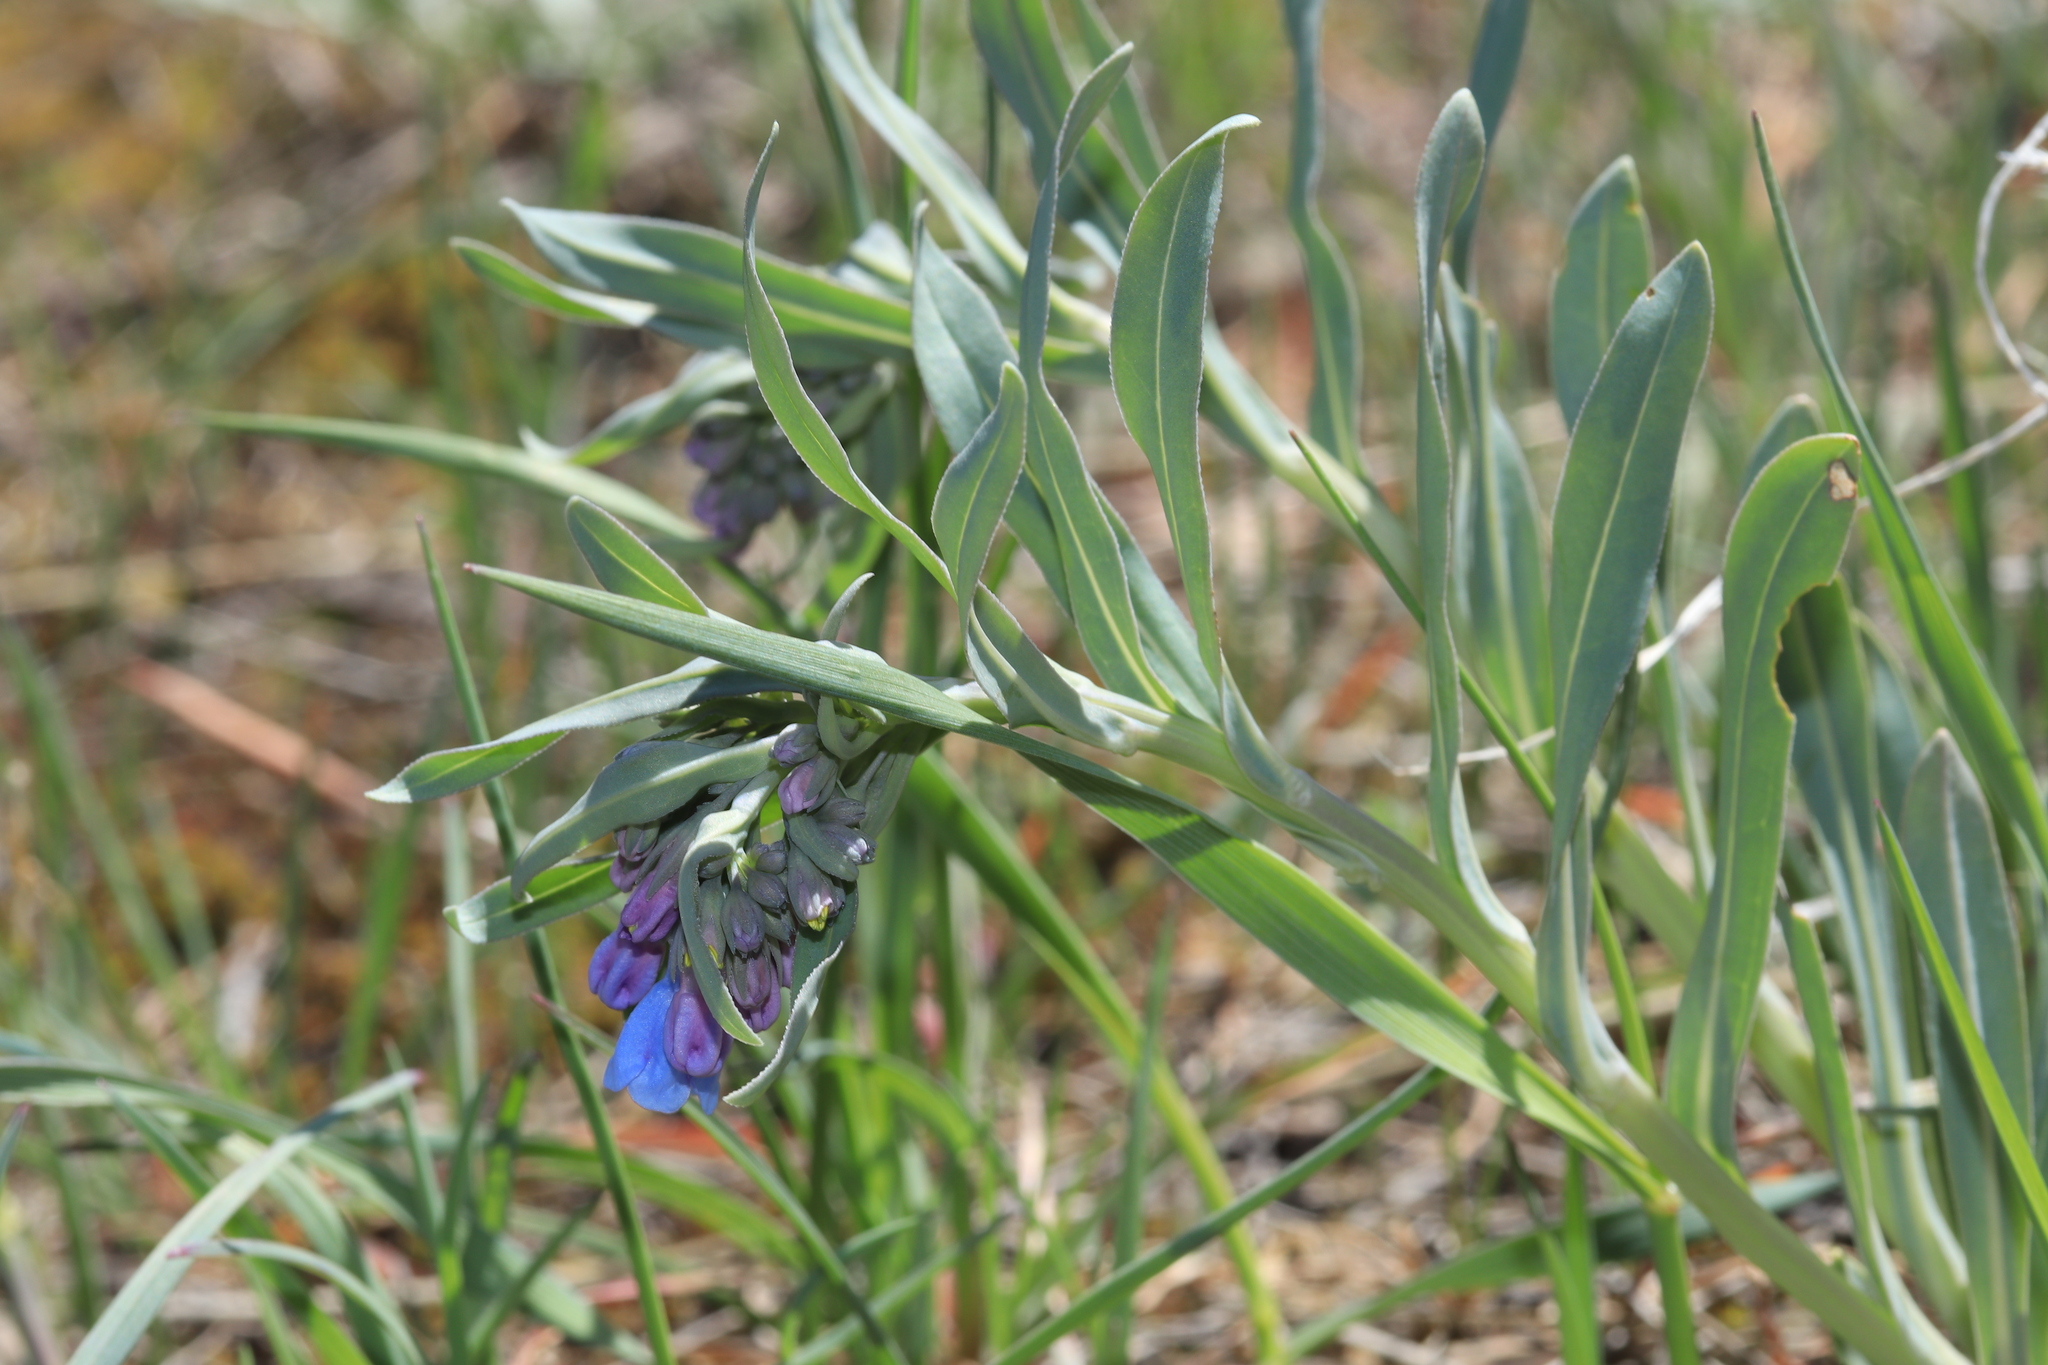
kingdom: Plantae
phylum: Tracheophyta
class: Magnoliopsida
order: Boraginales
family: Boraginaceae
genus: Mertensia
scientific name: Mertensia lanceolata
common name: Lance-leaved bluebells
